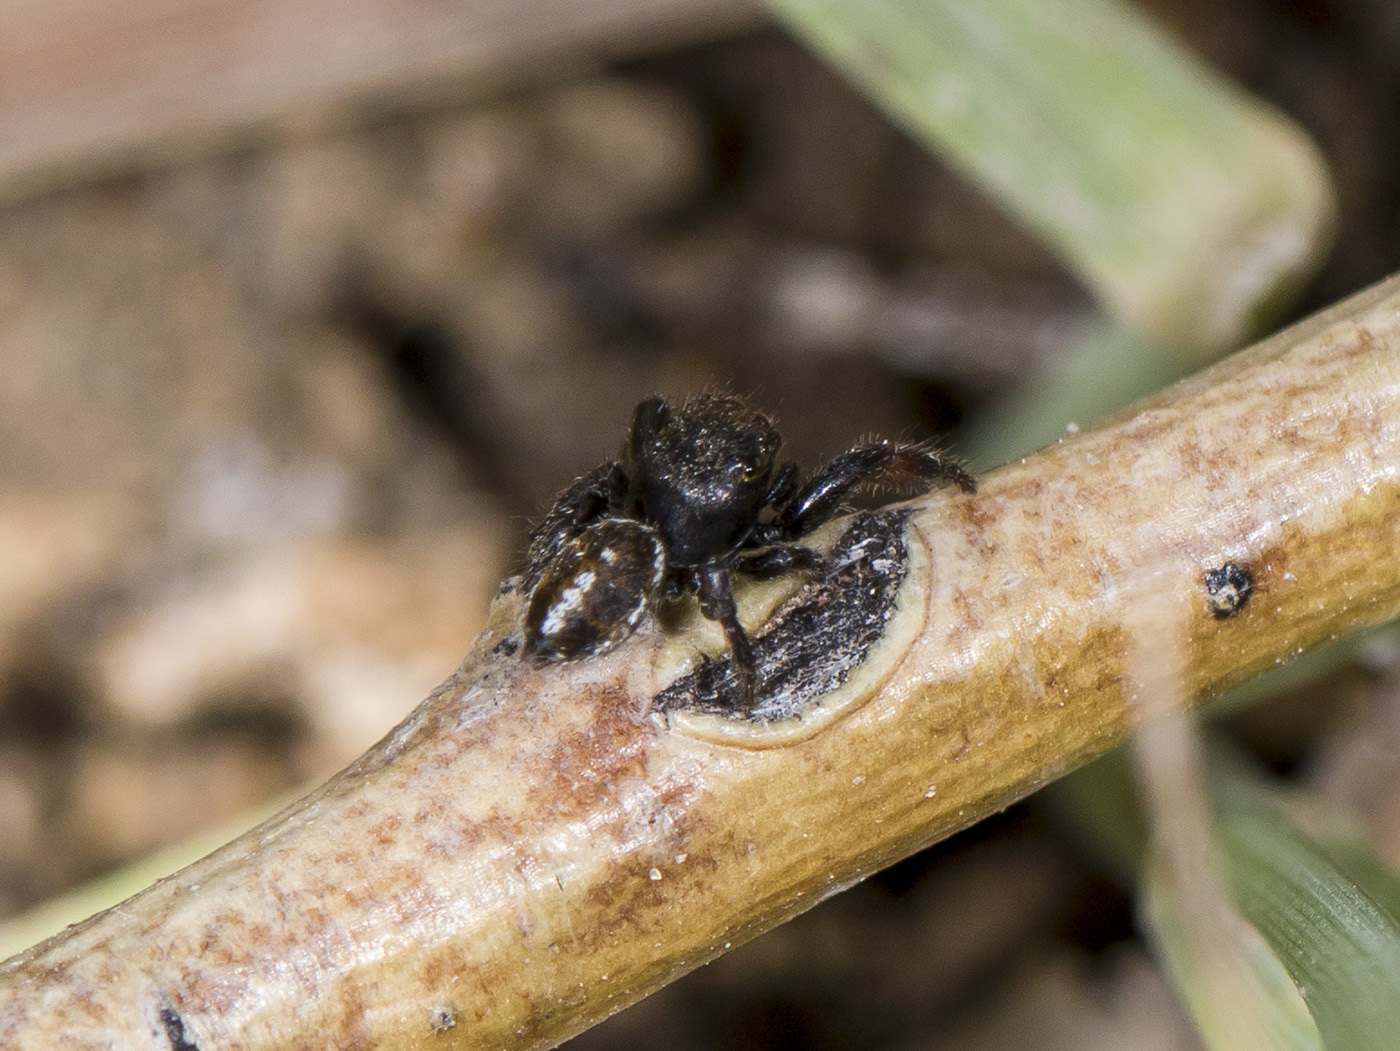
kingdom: Animalia
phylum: Arthropoda
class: Arachnida
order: Araneae
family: Salticidae
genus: Pellenes
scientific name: Pellenes allegrii
